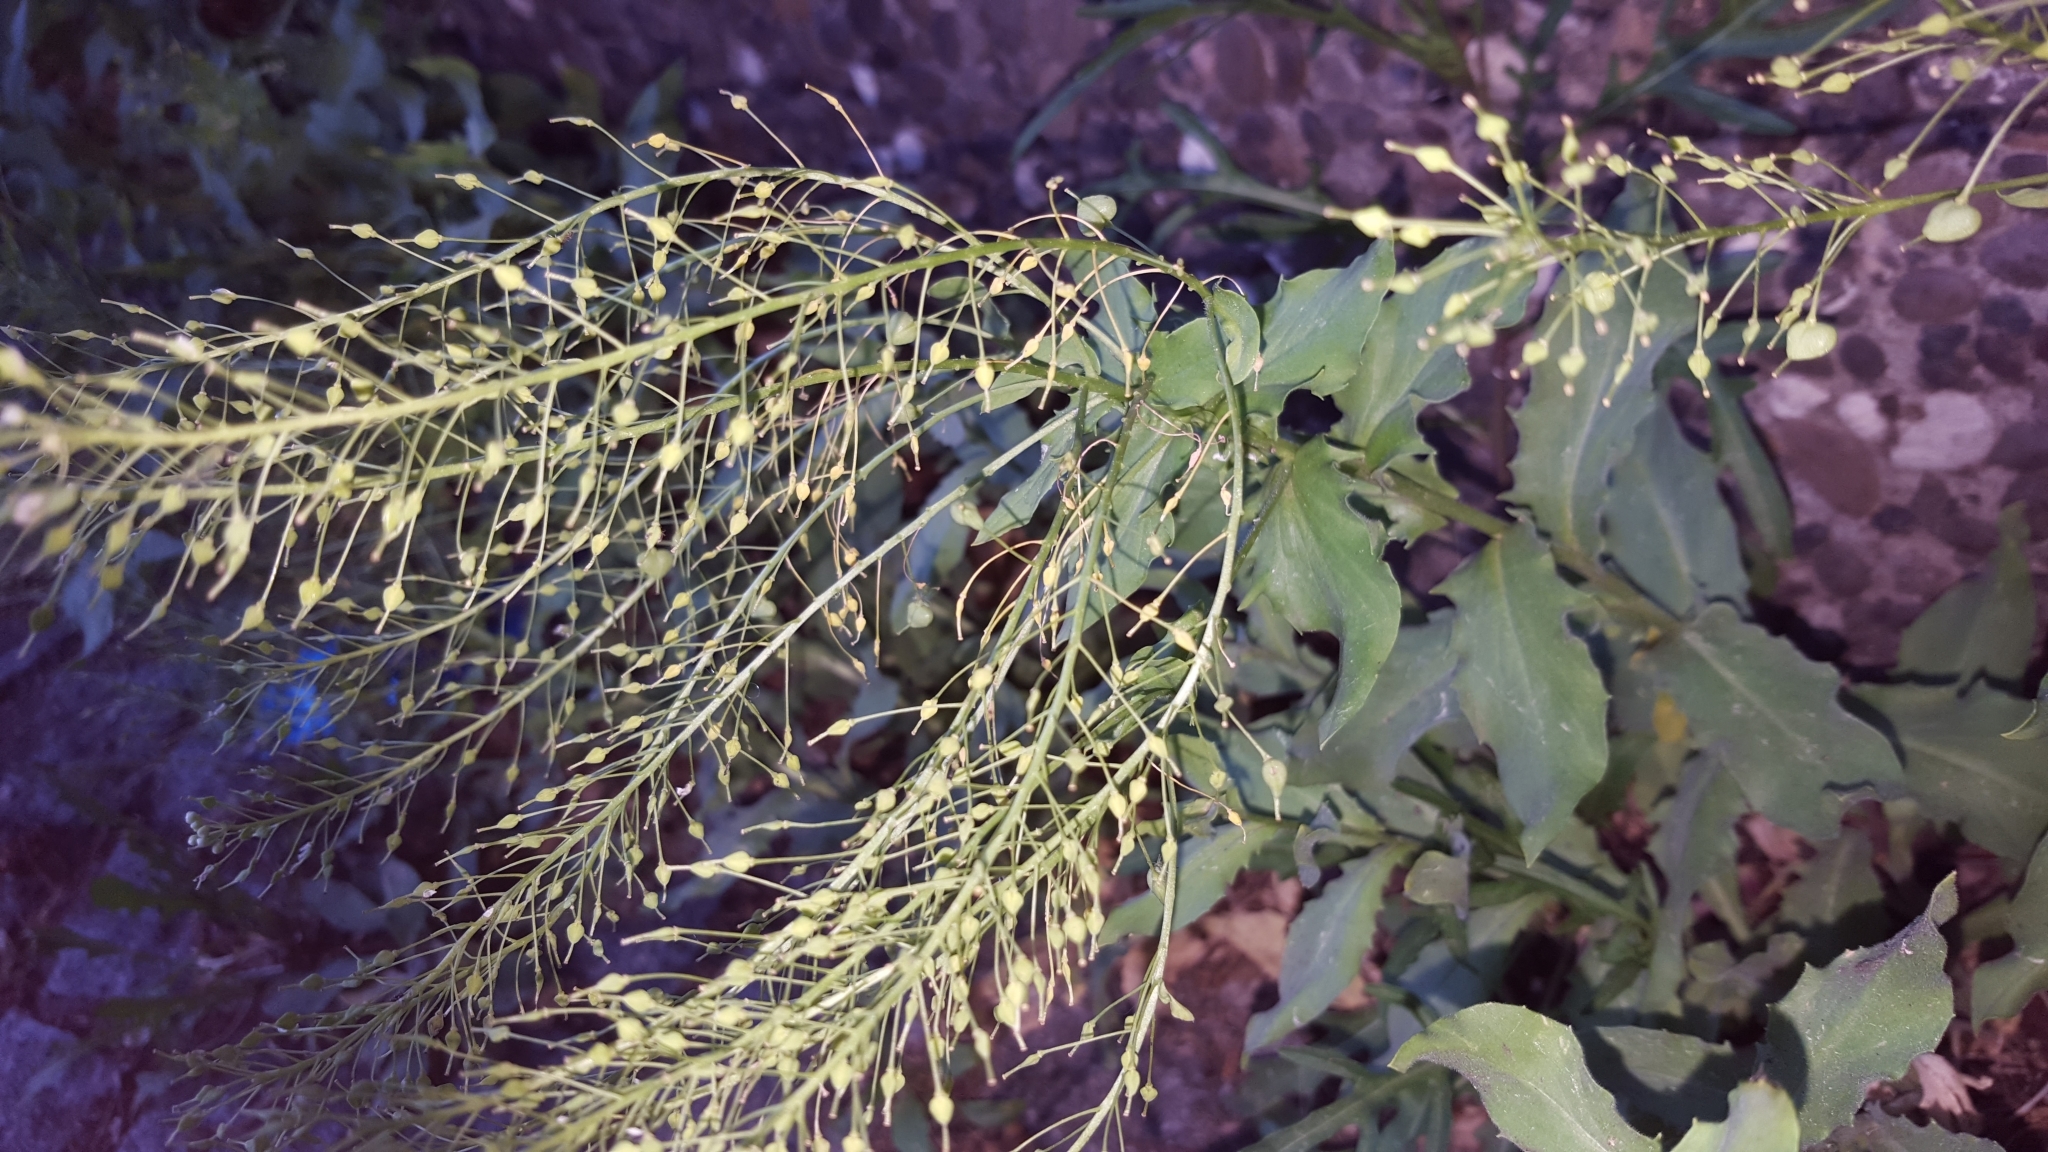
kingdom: Plantae
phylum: Tracheophyta
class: Magnoliopsida
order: Brassicales
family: Brassicaceae
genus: Lepidium
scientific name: Lepidium draba
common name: Hoary cress
